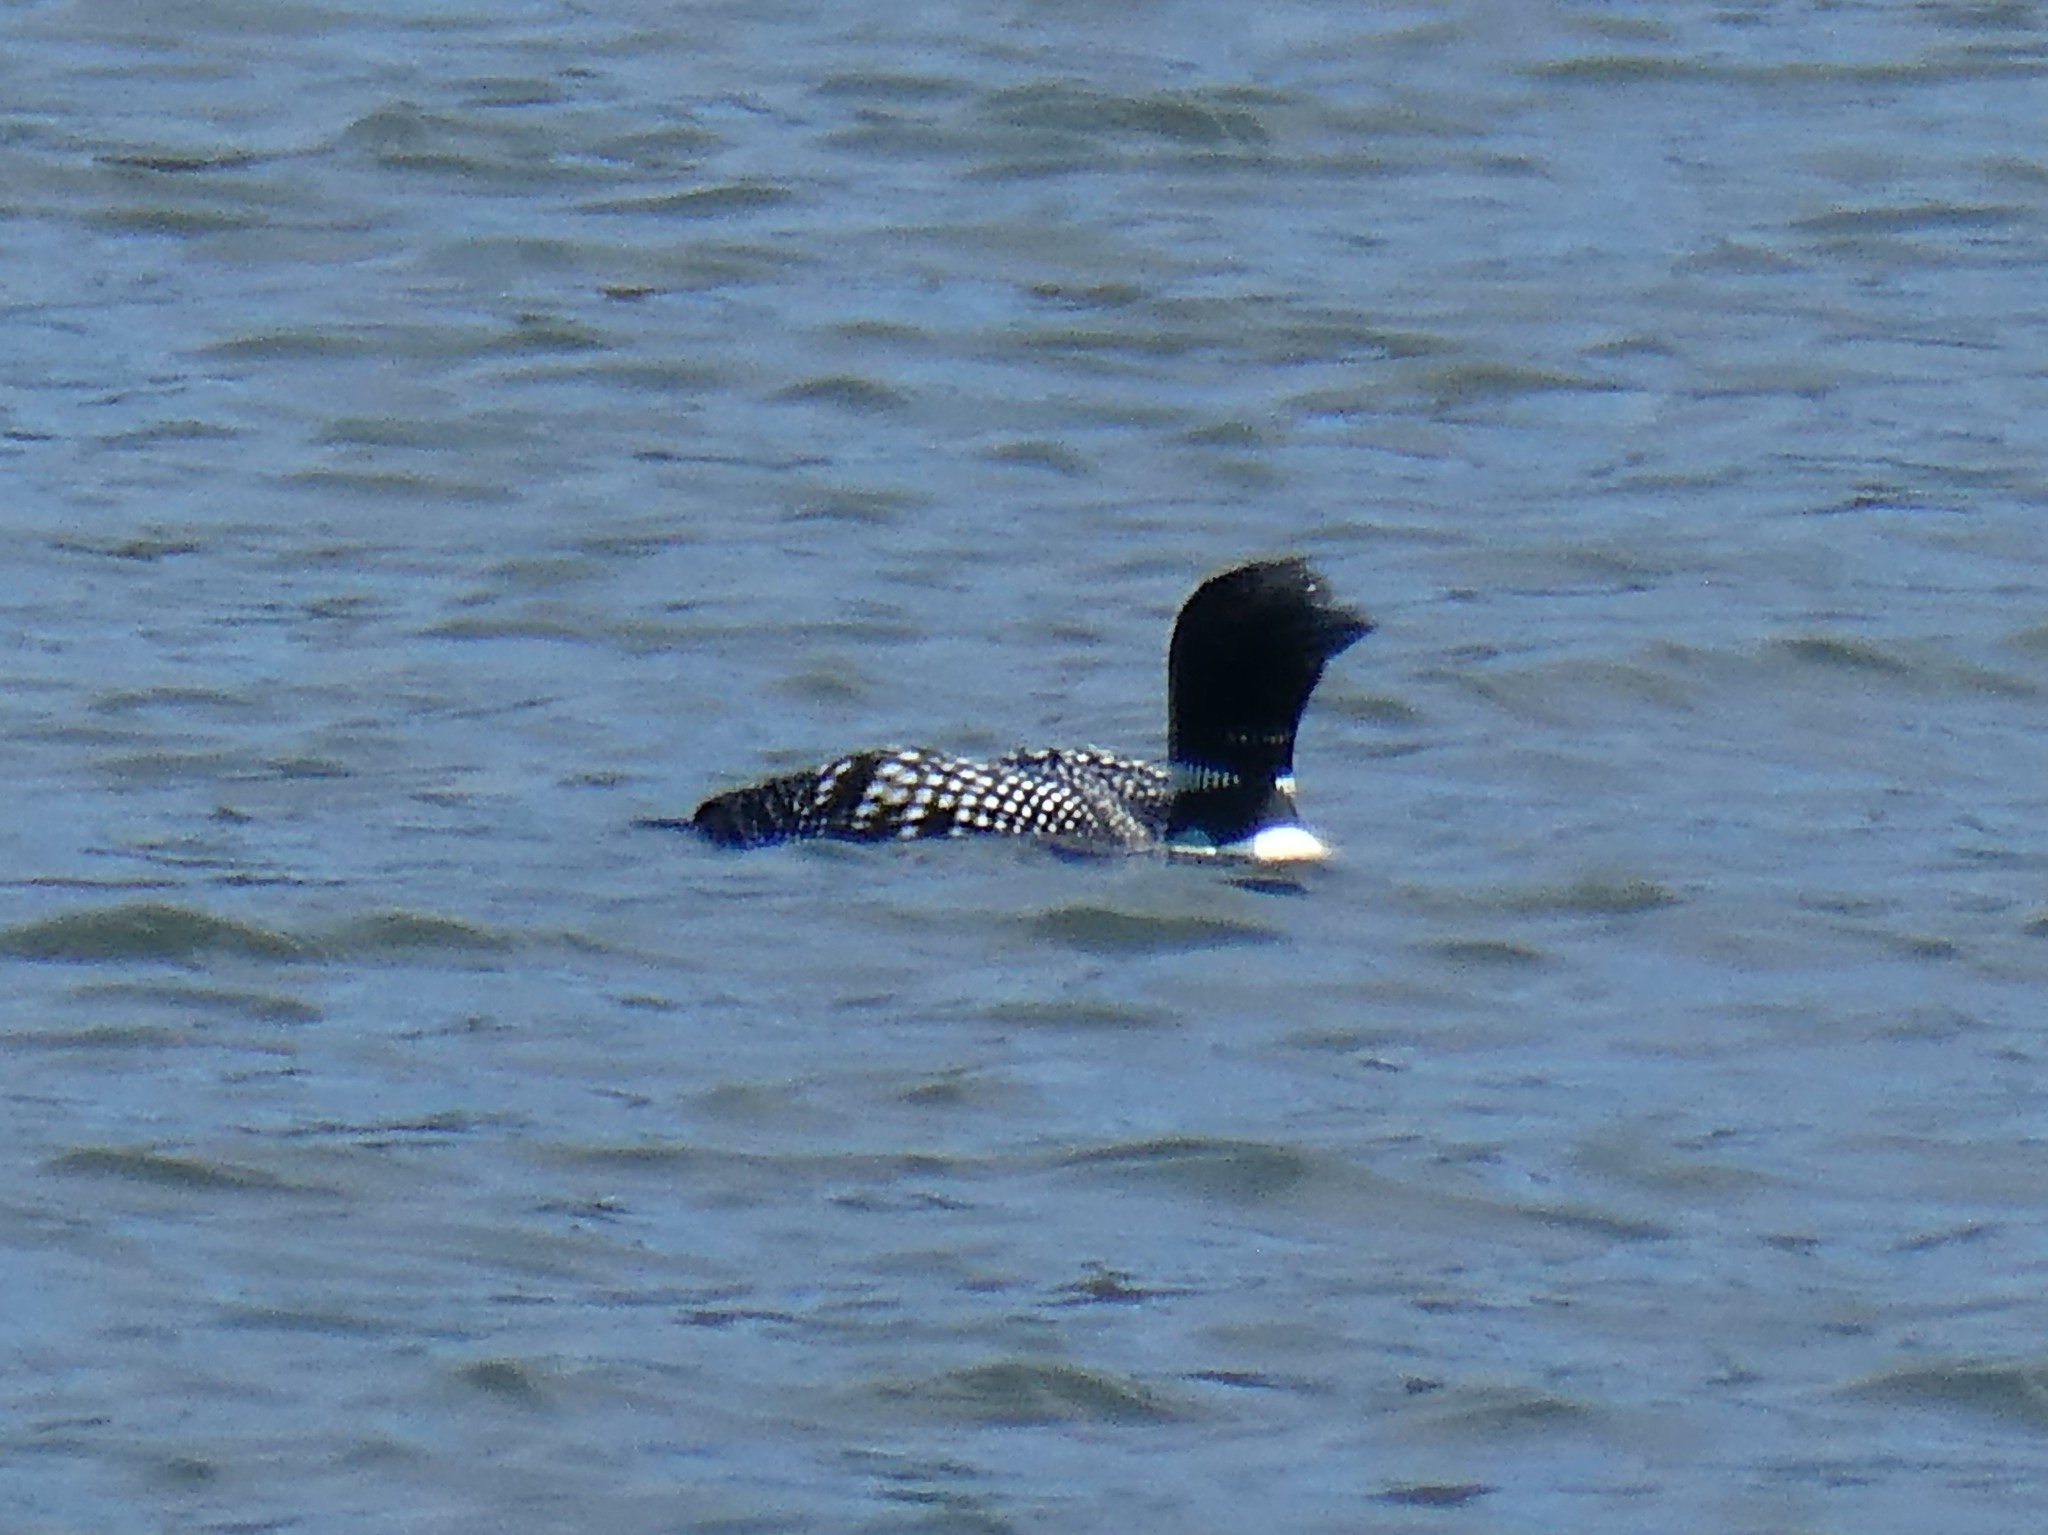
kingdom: Animalia
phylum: Chordata
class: Aves
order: Gaviiformes
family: Gaviidae
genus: Gavia
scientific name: Gavia immer
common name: Common loon
